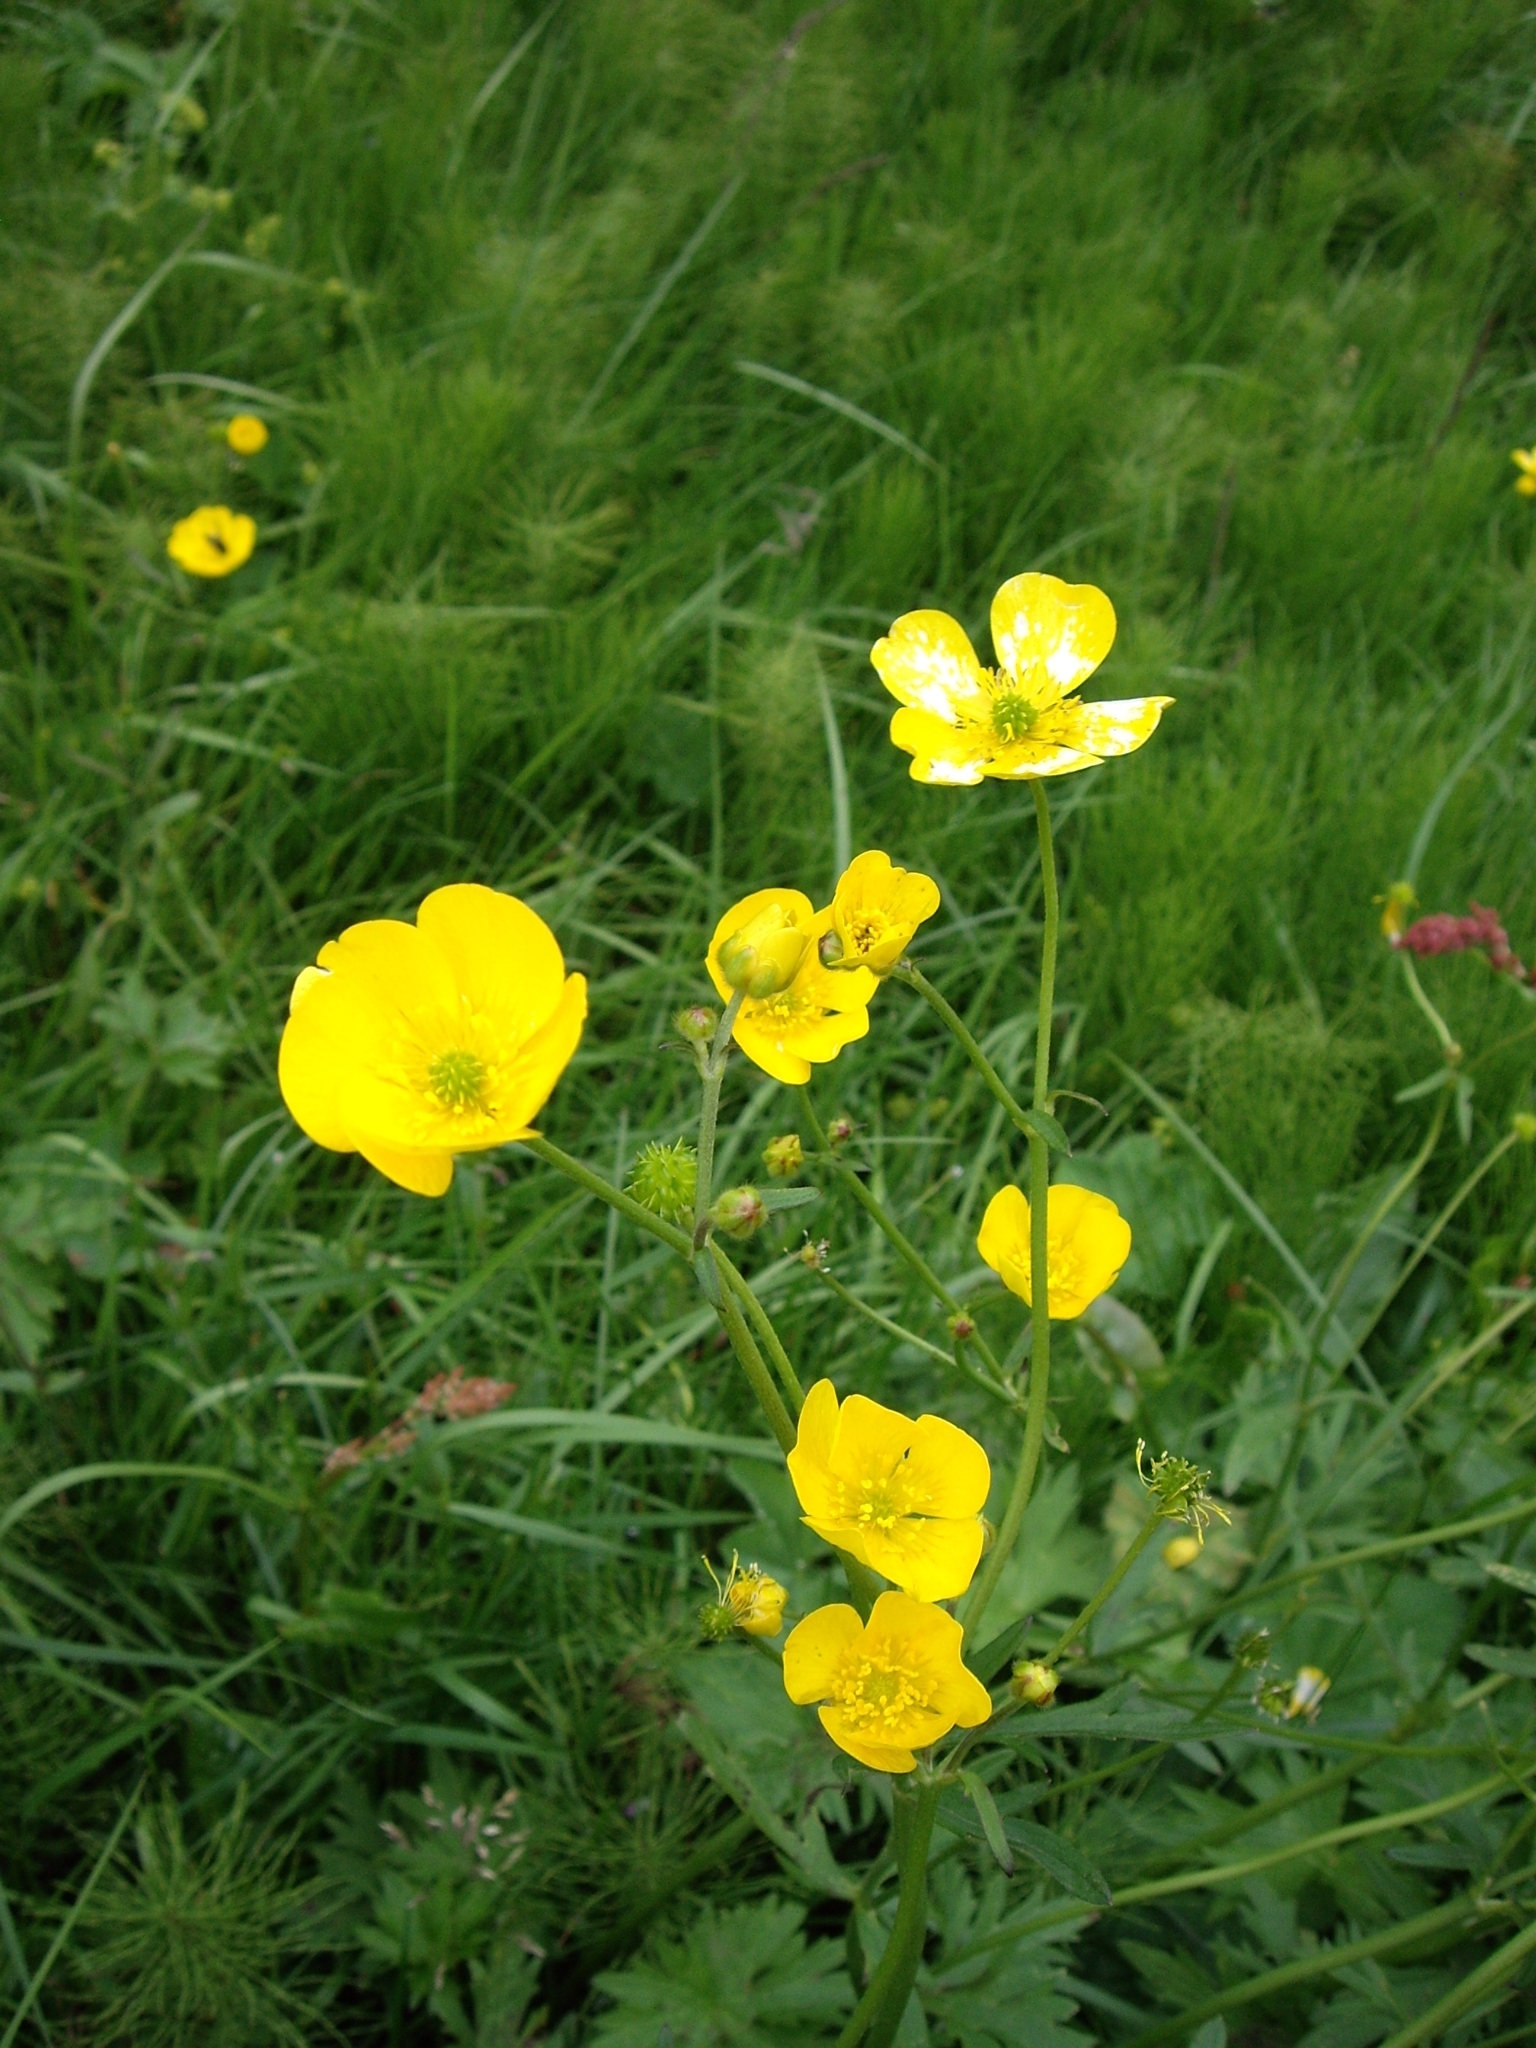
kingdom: Plantae
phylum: Tracheophyta
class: Magnoliopsida
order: Ranunculales
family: Ranunculaceae
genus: Ranunculus
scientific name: Ranunculus acris
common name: Meadow buttercup
